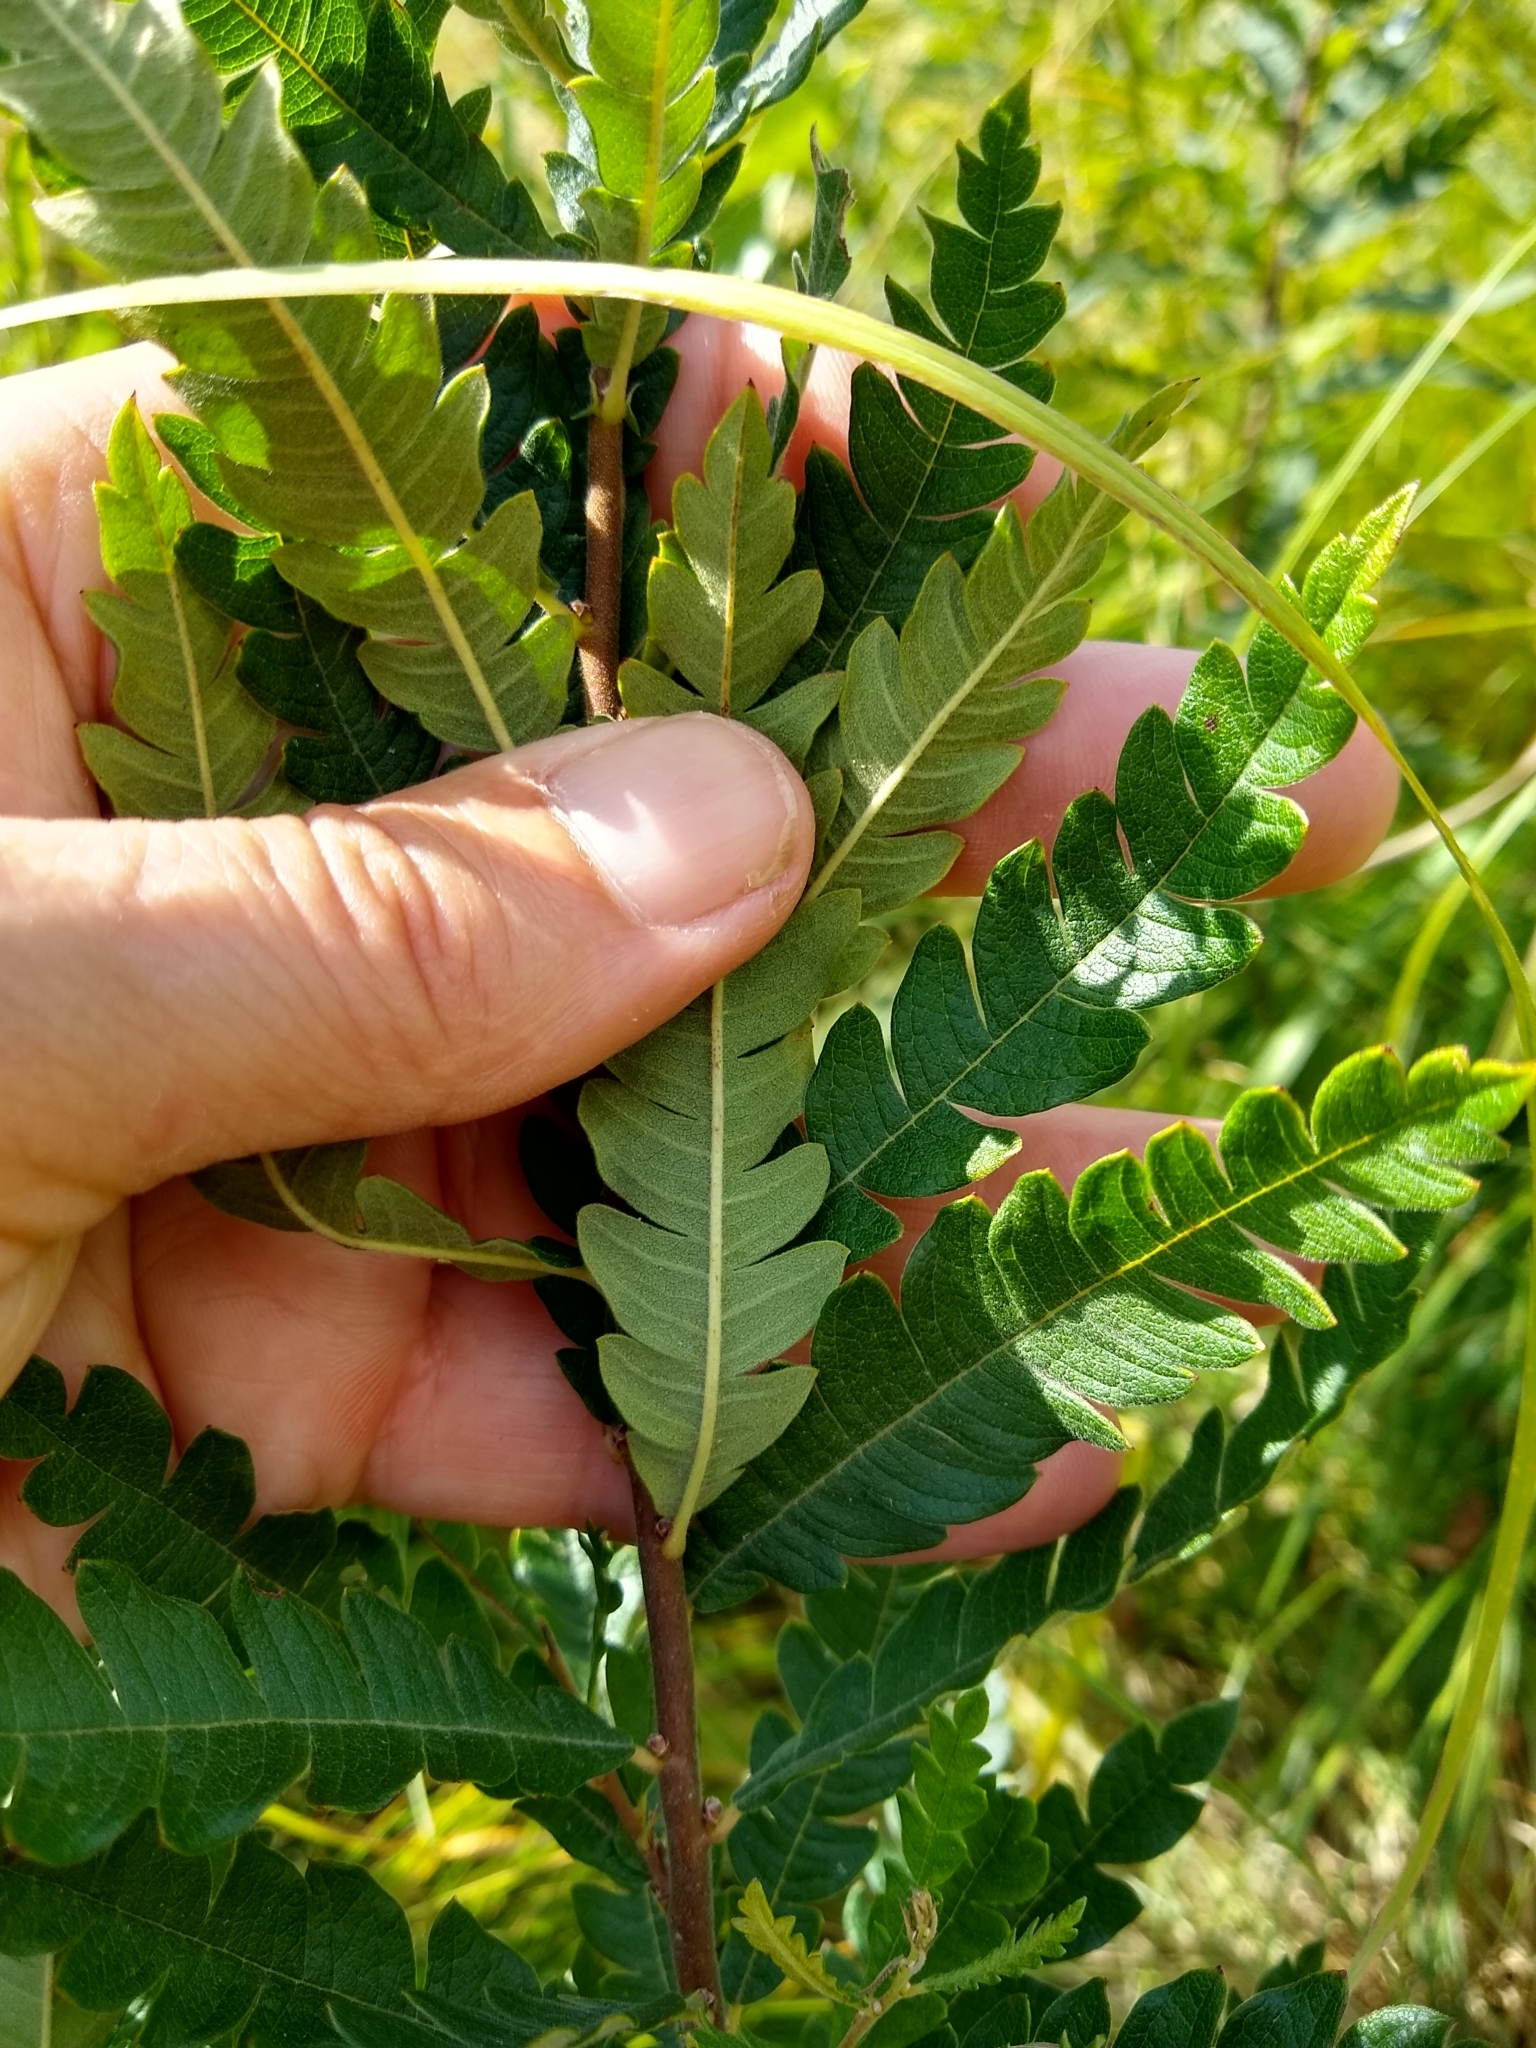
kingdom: Plantae
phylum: Tracheophyta
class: Magnoliopsida
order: Fagales
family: Myricaceae
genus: Comptonia
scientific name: Comptonia peregrina
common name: Sweet-fern
